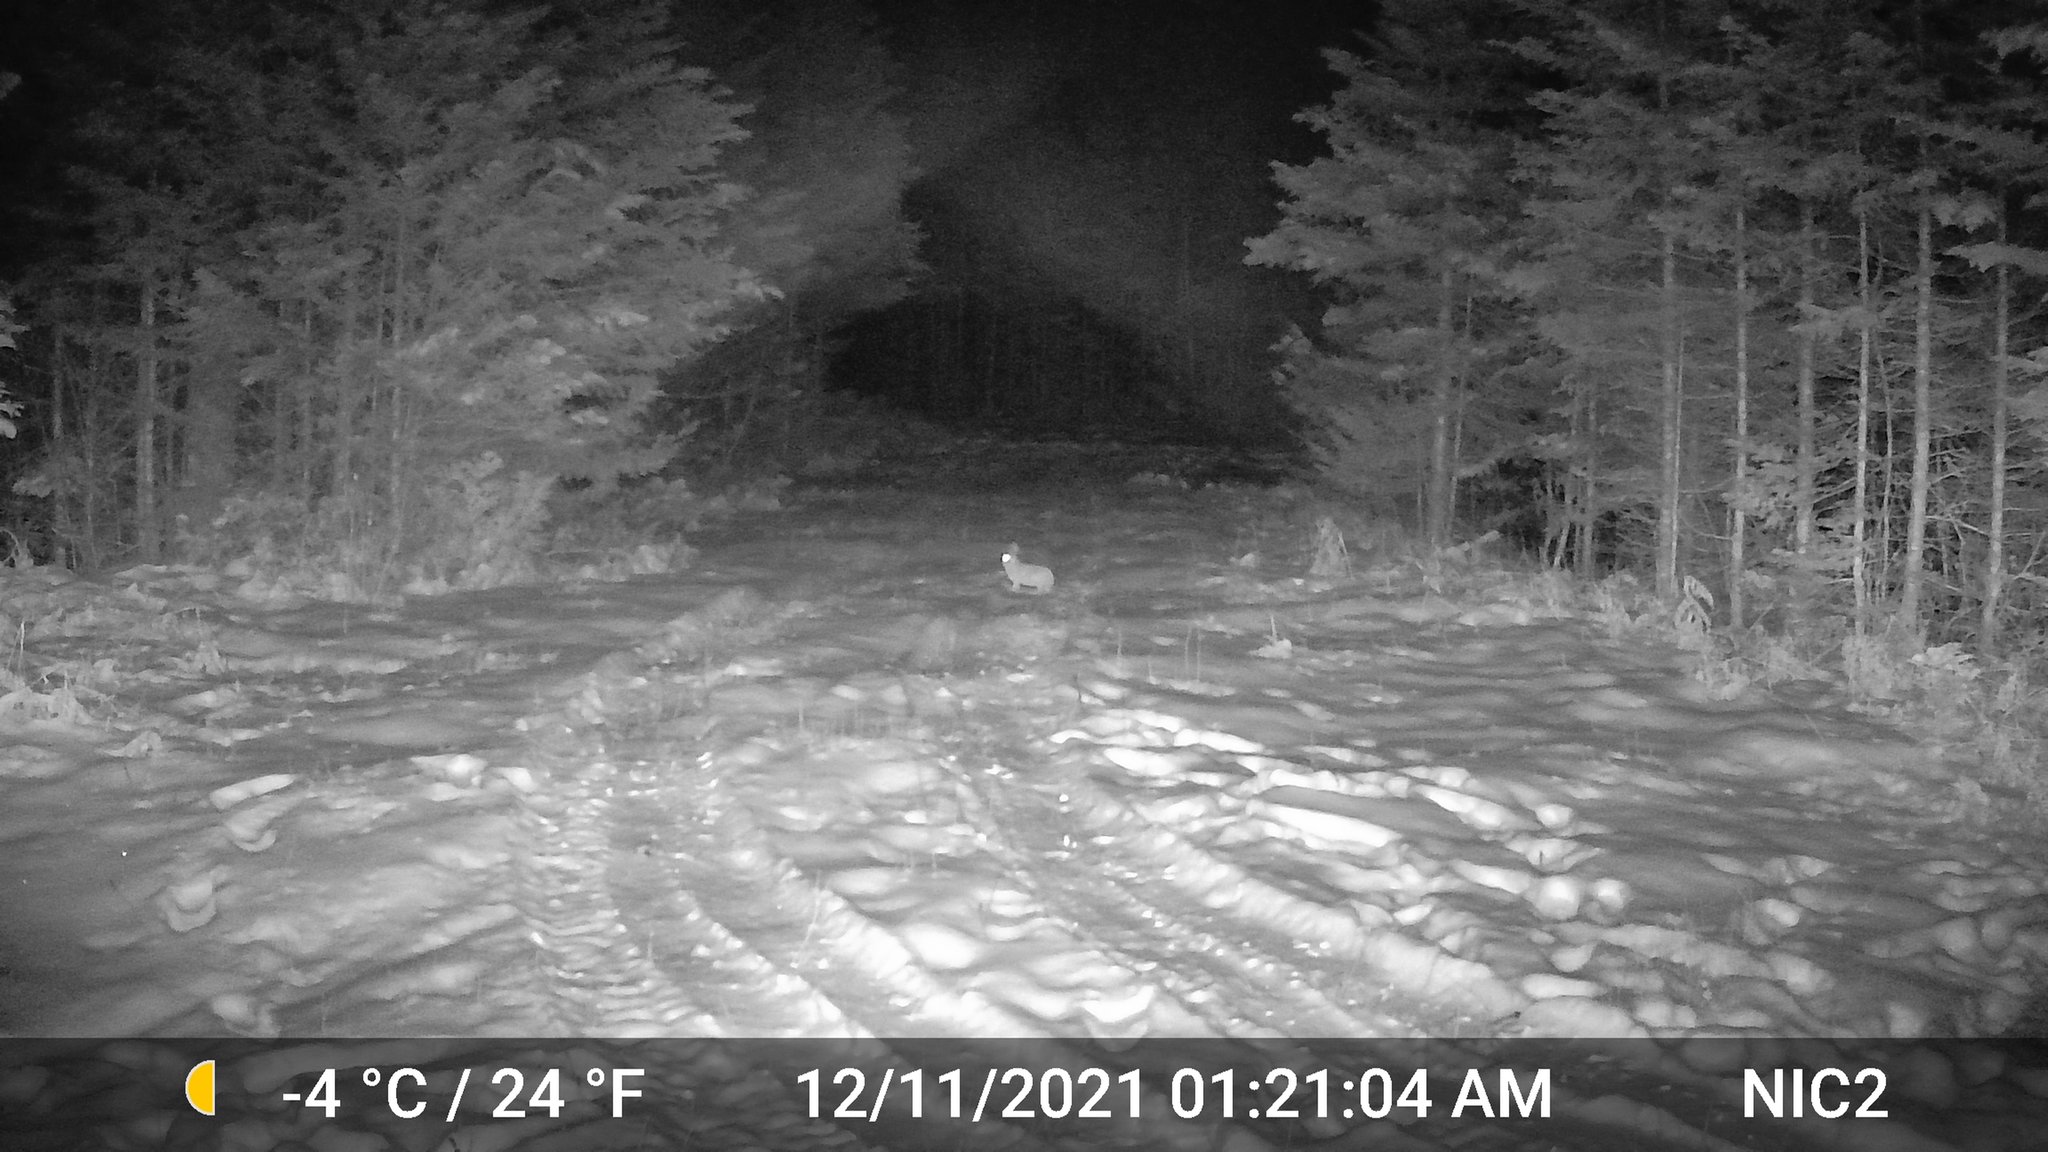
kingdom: Animalia
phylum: Chordata
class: Mammalia
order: Lagomorpha
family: Leporidae
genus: Lepus
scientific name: Lepus americanus
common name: Snowshoe hare
